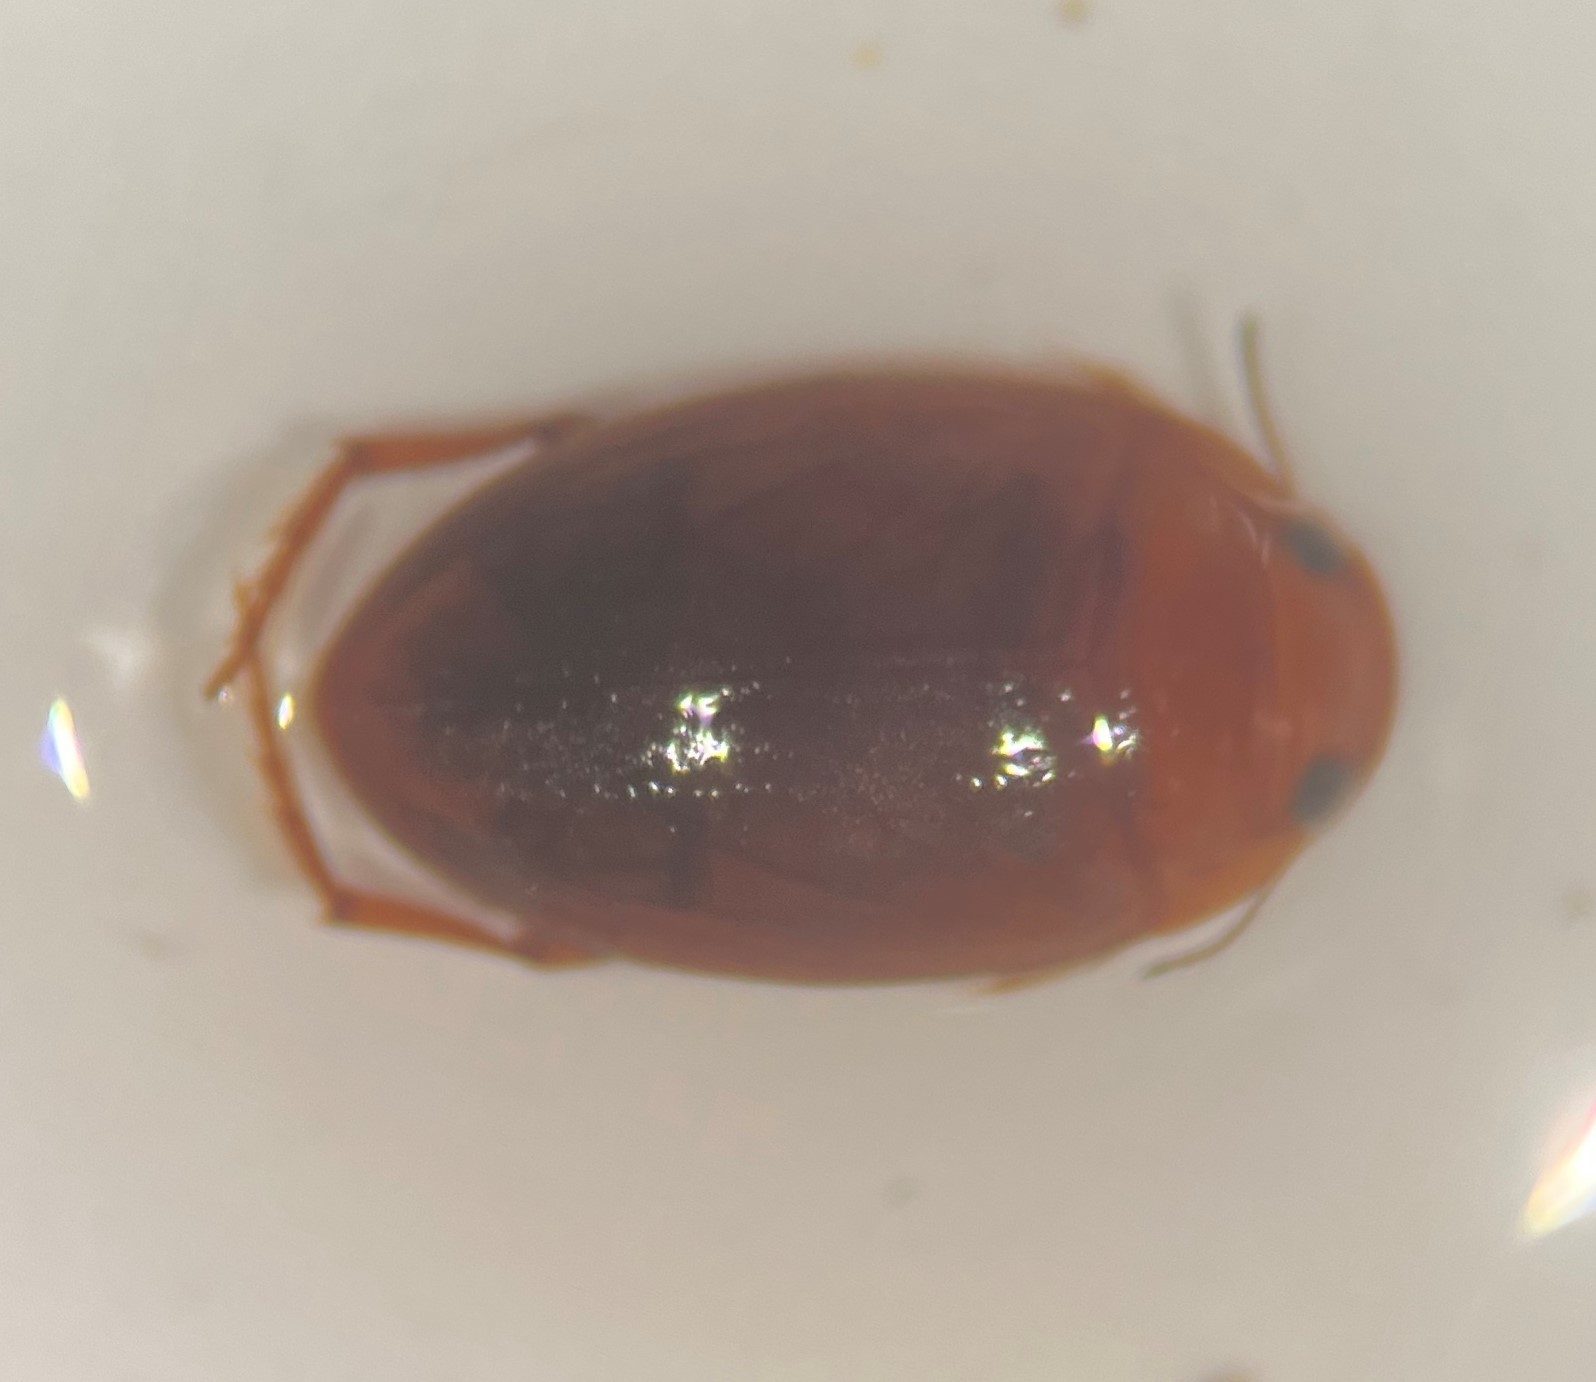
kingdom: Animalia
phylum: Arthropoda
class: Insecta
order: Coleoptera
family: Dytiscidae
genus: Neoporus
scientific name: Neoporus lobatus
